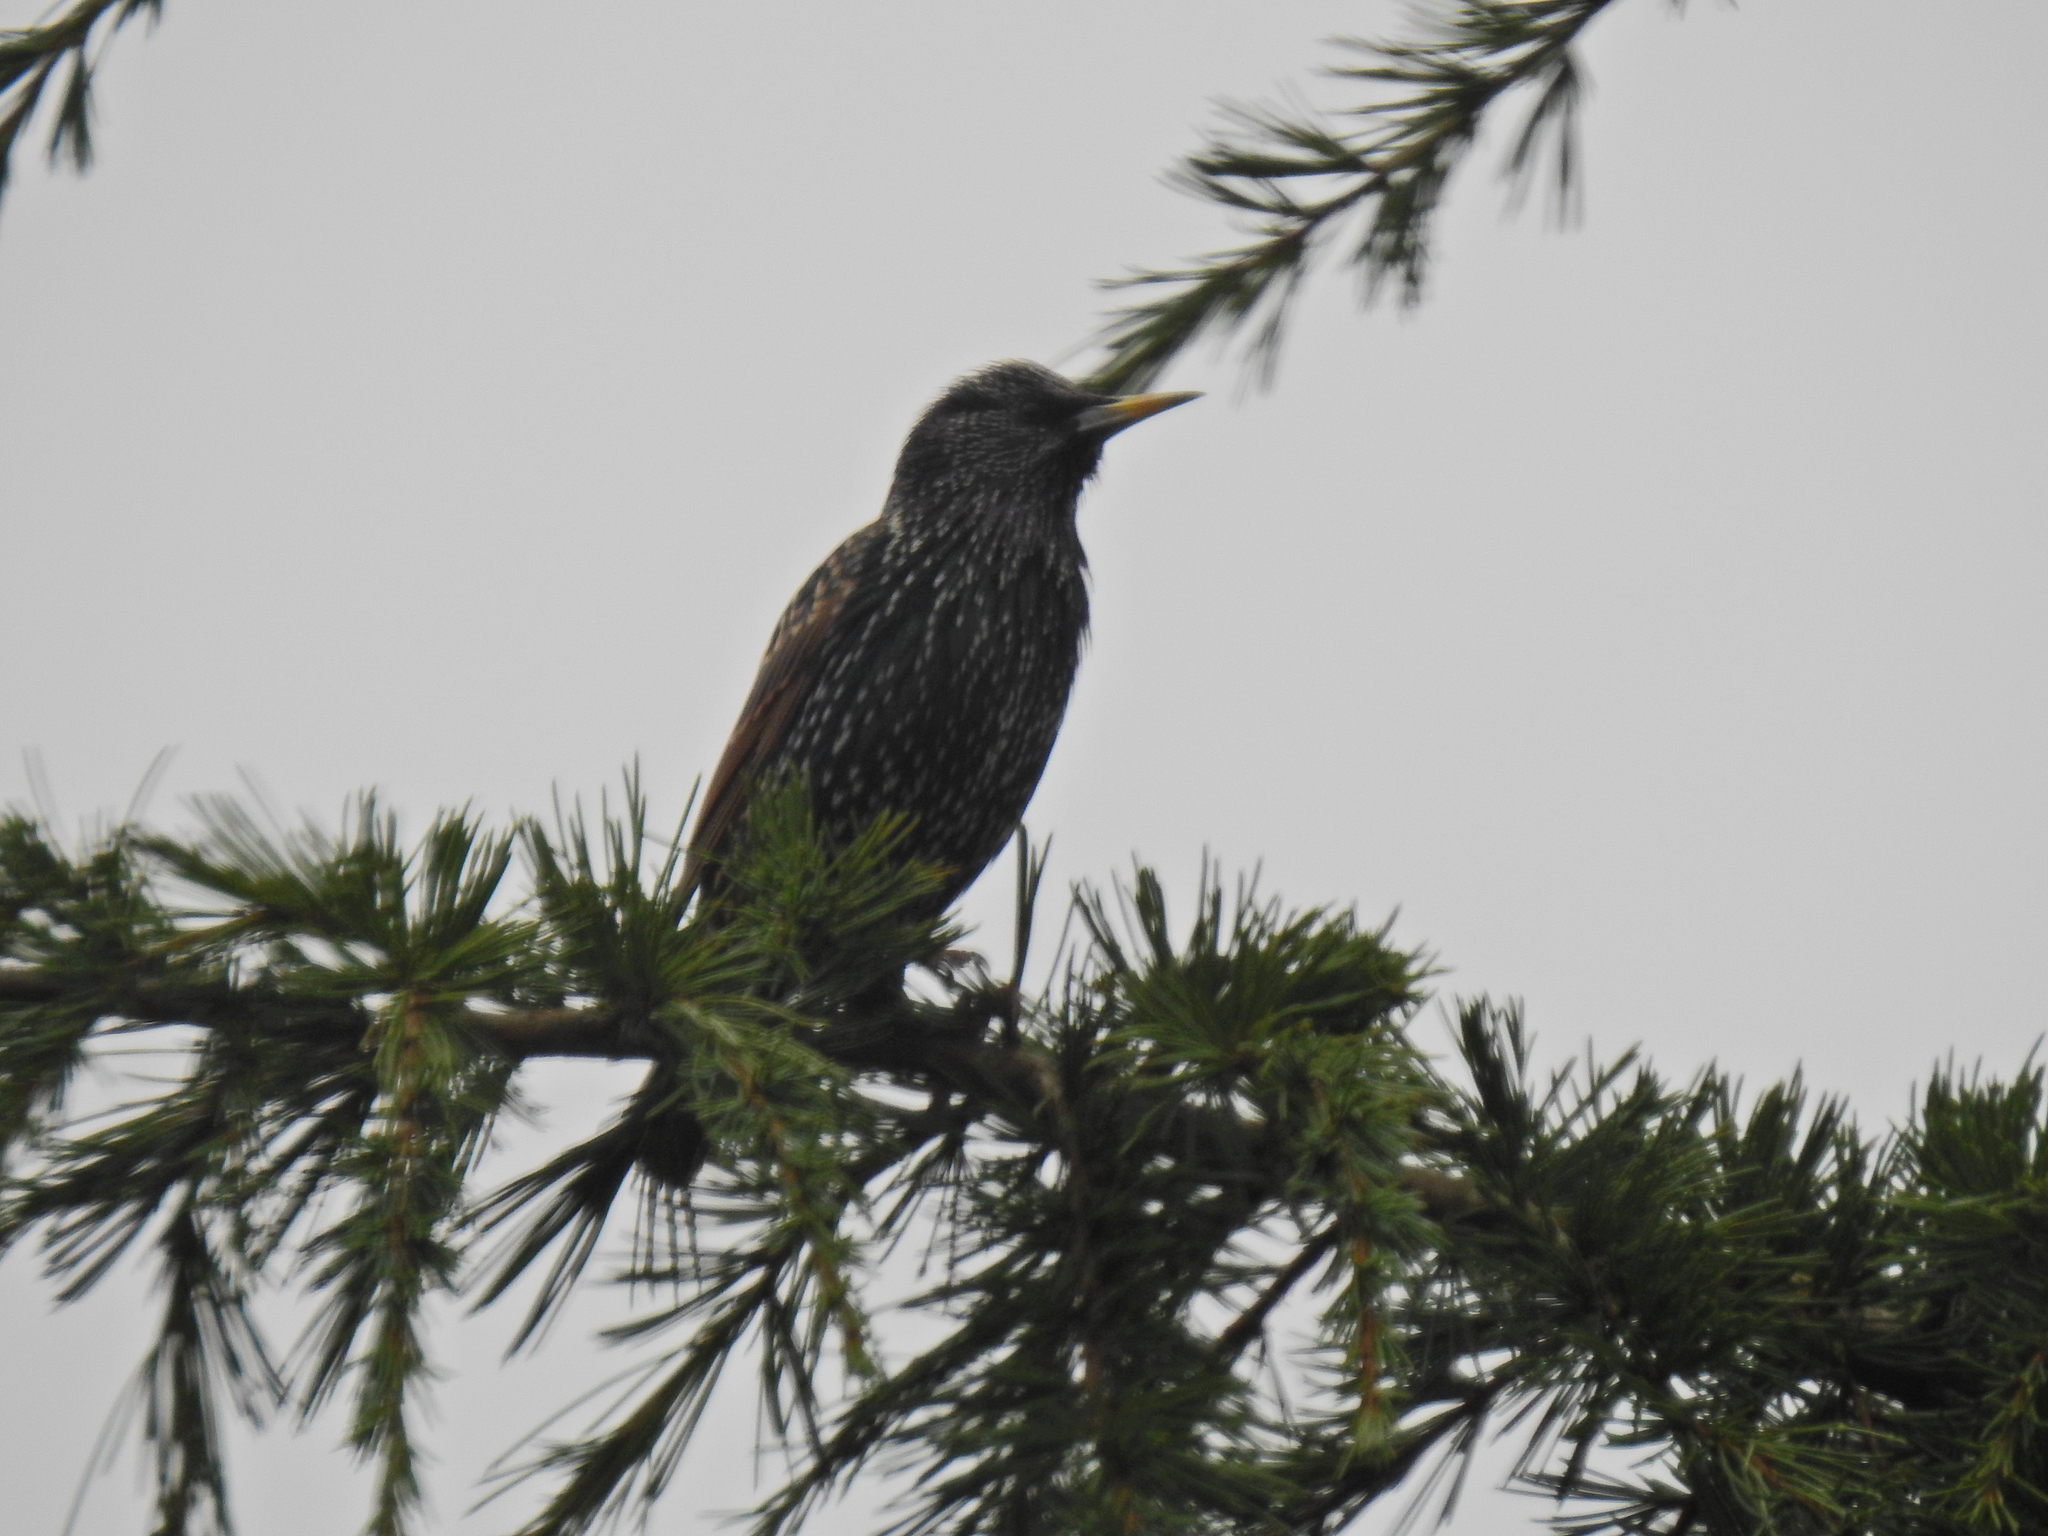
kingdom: Animalia
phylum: Chordata
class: Aves
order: Passeriformes
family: Sturnidae
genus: Sturnus
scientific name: Sturnus vulgaris
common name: Common starling
